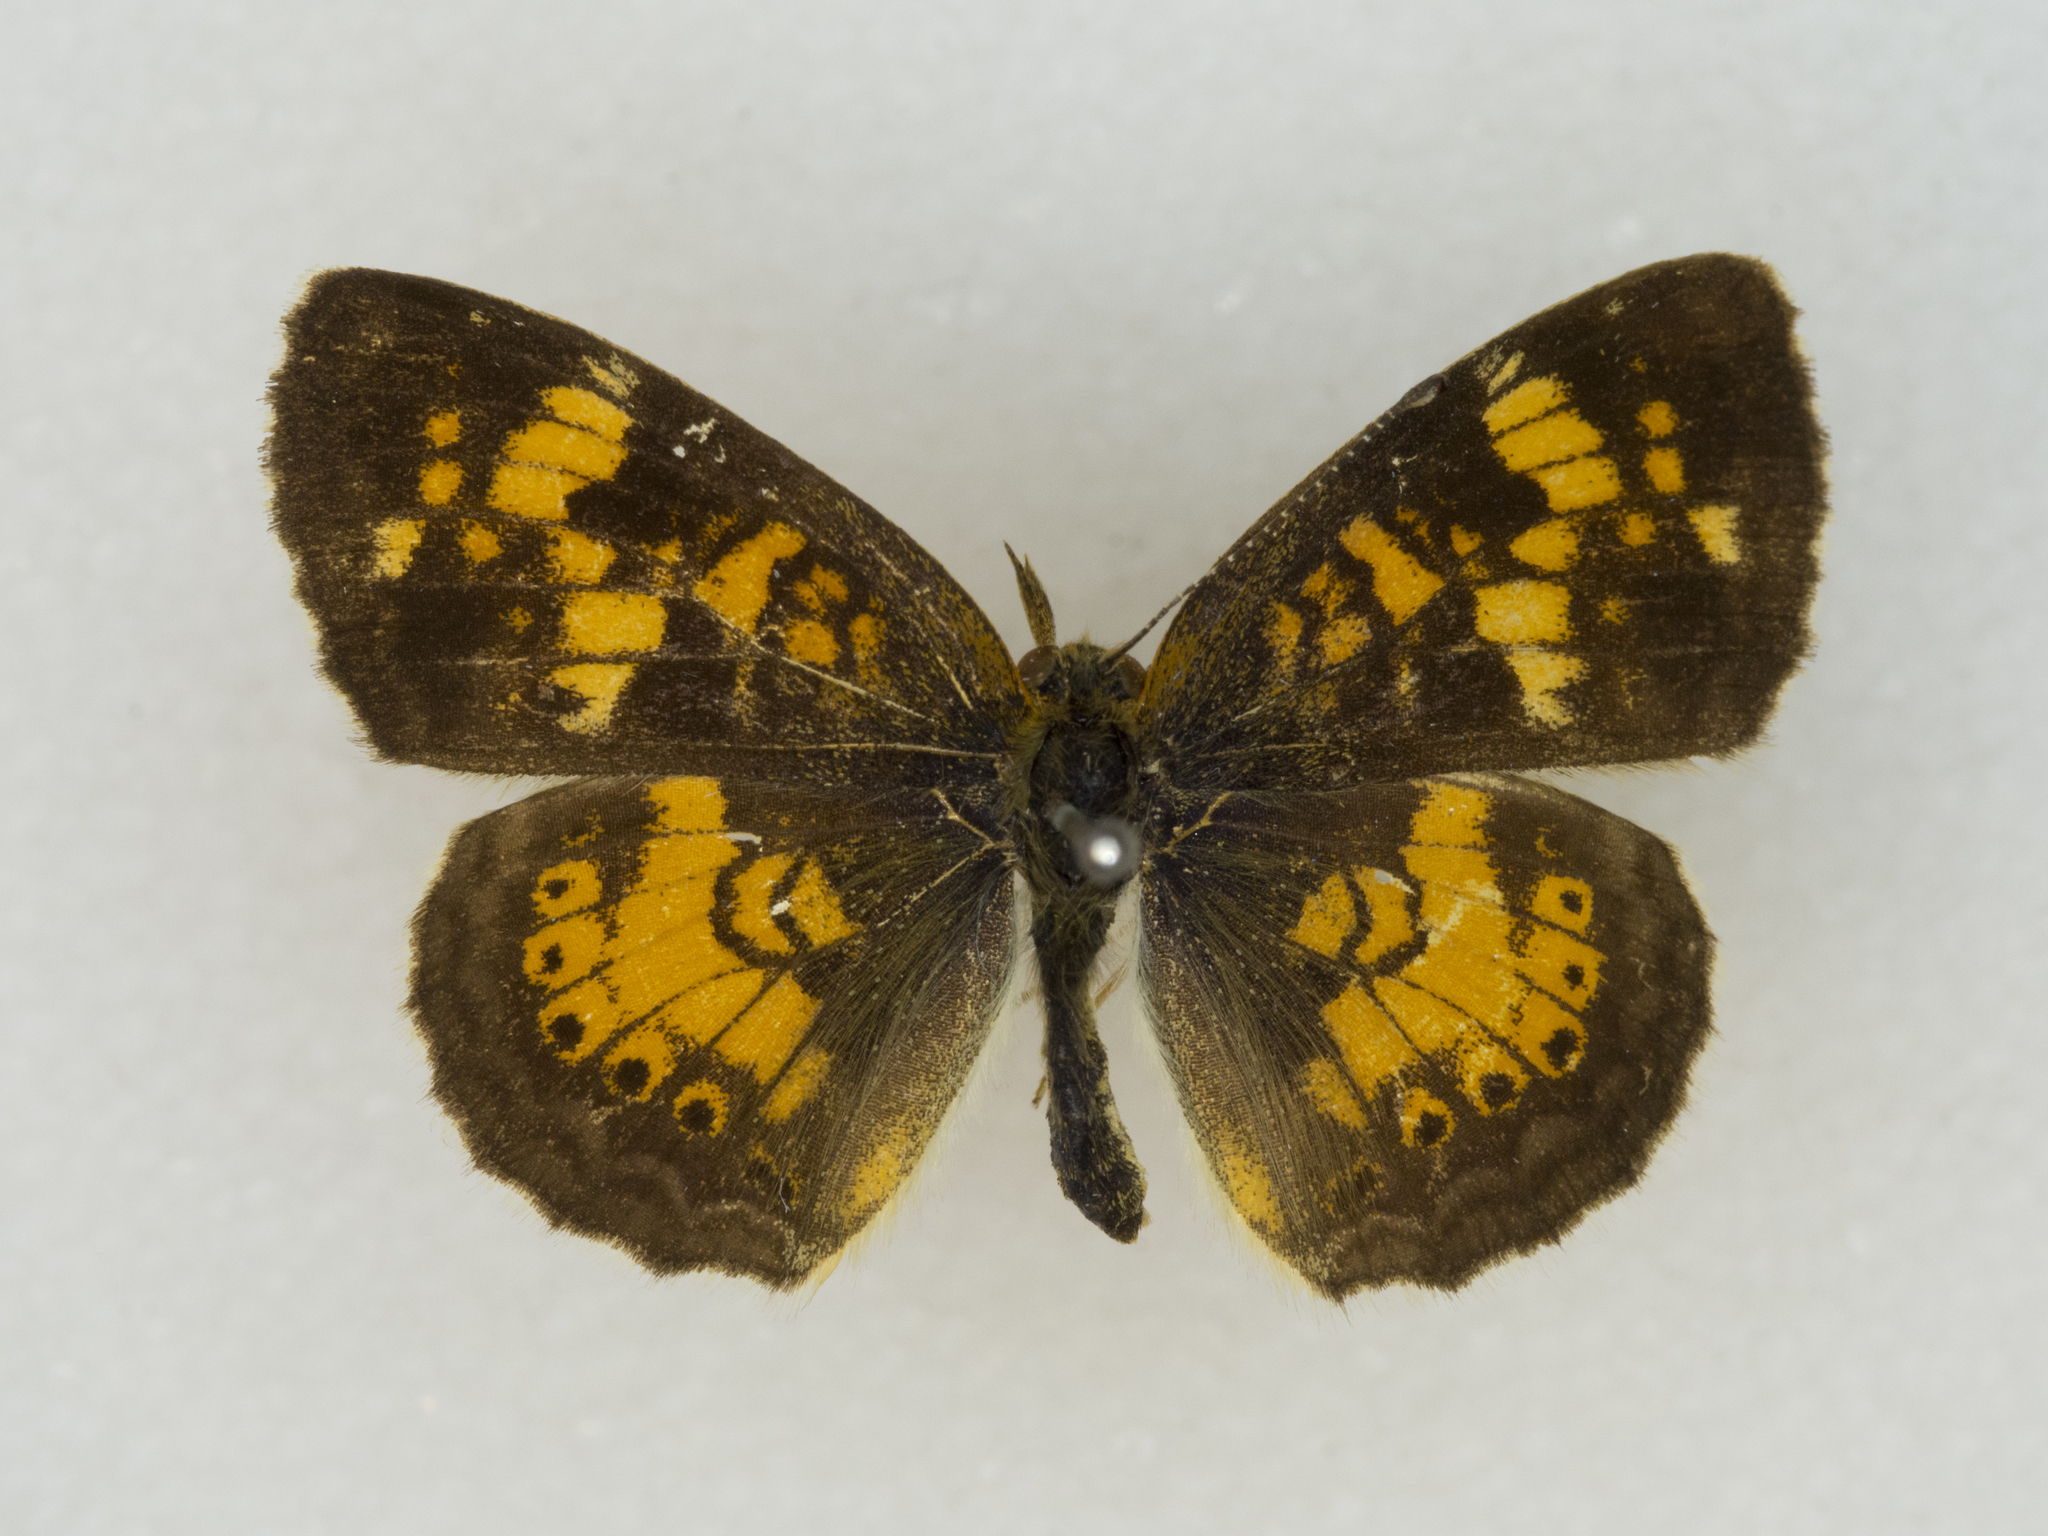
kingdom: Animalia
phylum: Arthropoda
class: Insecta
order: Lepidoptera
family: Nymphalidae
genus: Phyciodes
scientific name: Phyciodes batesii
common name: Tawny crescent
